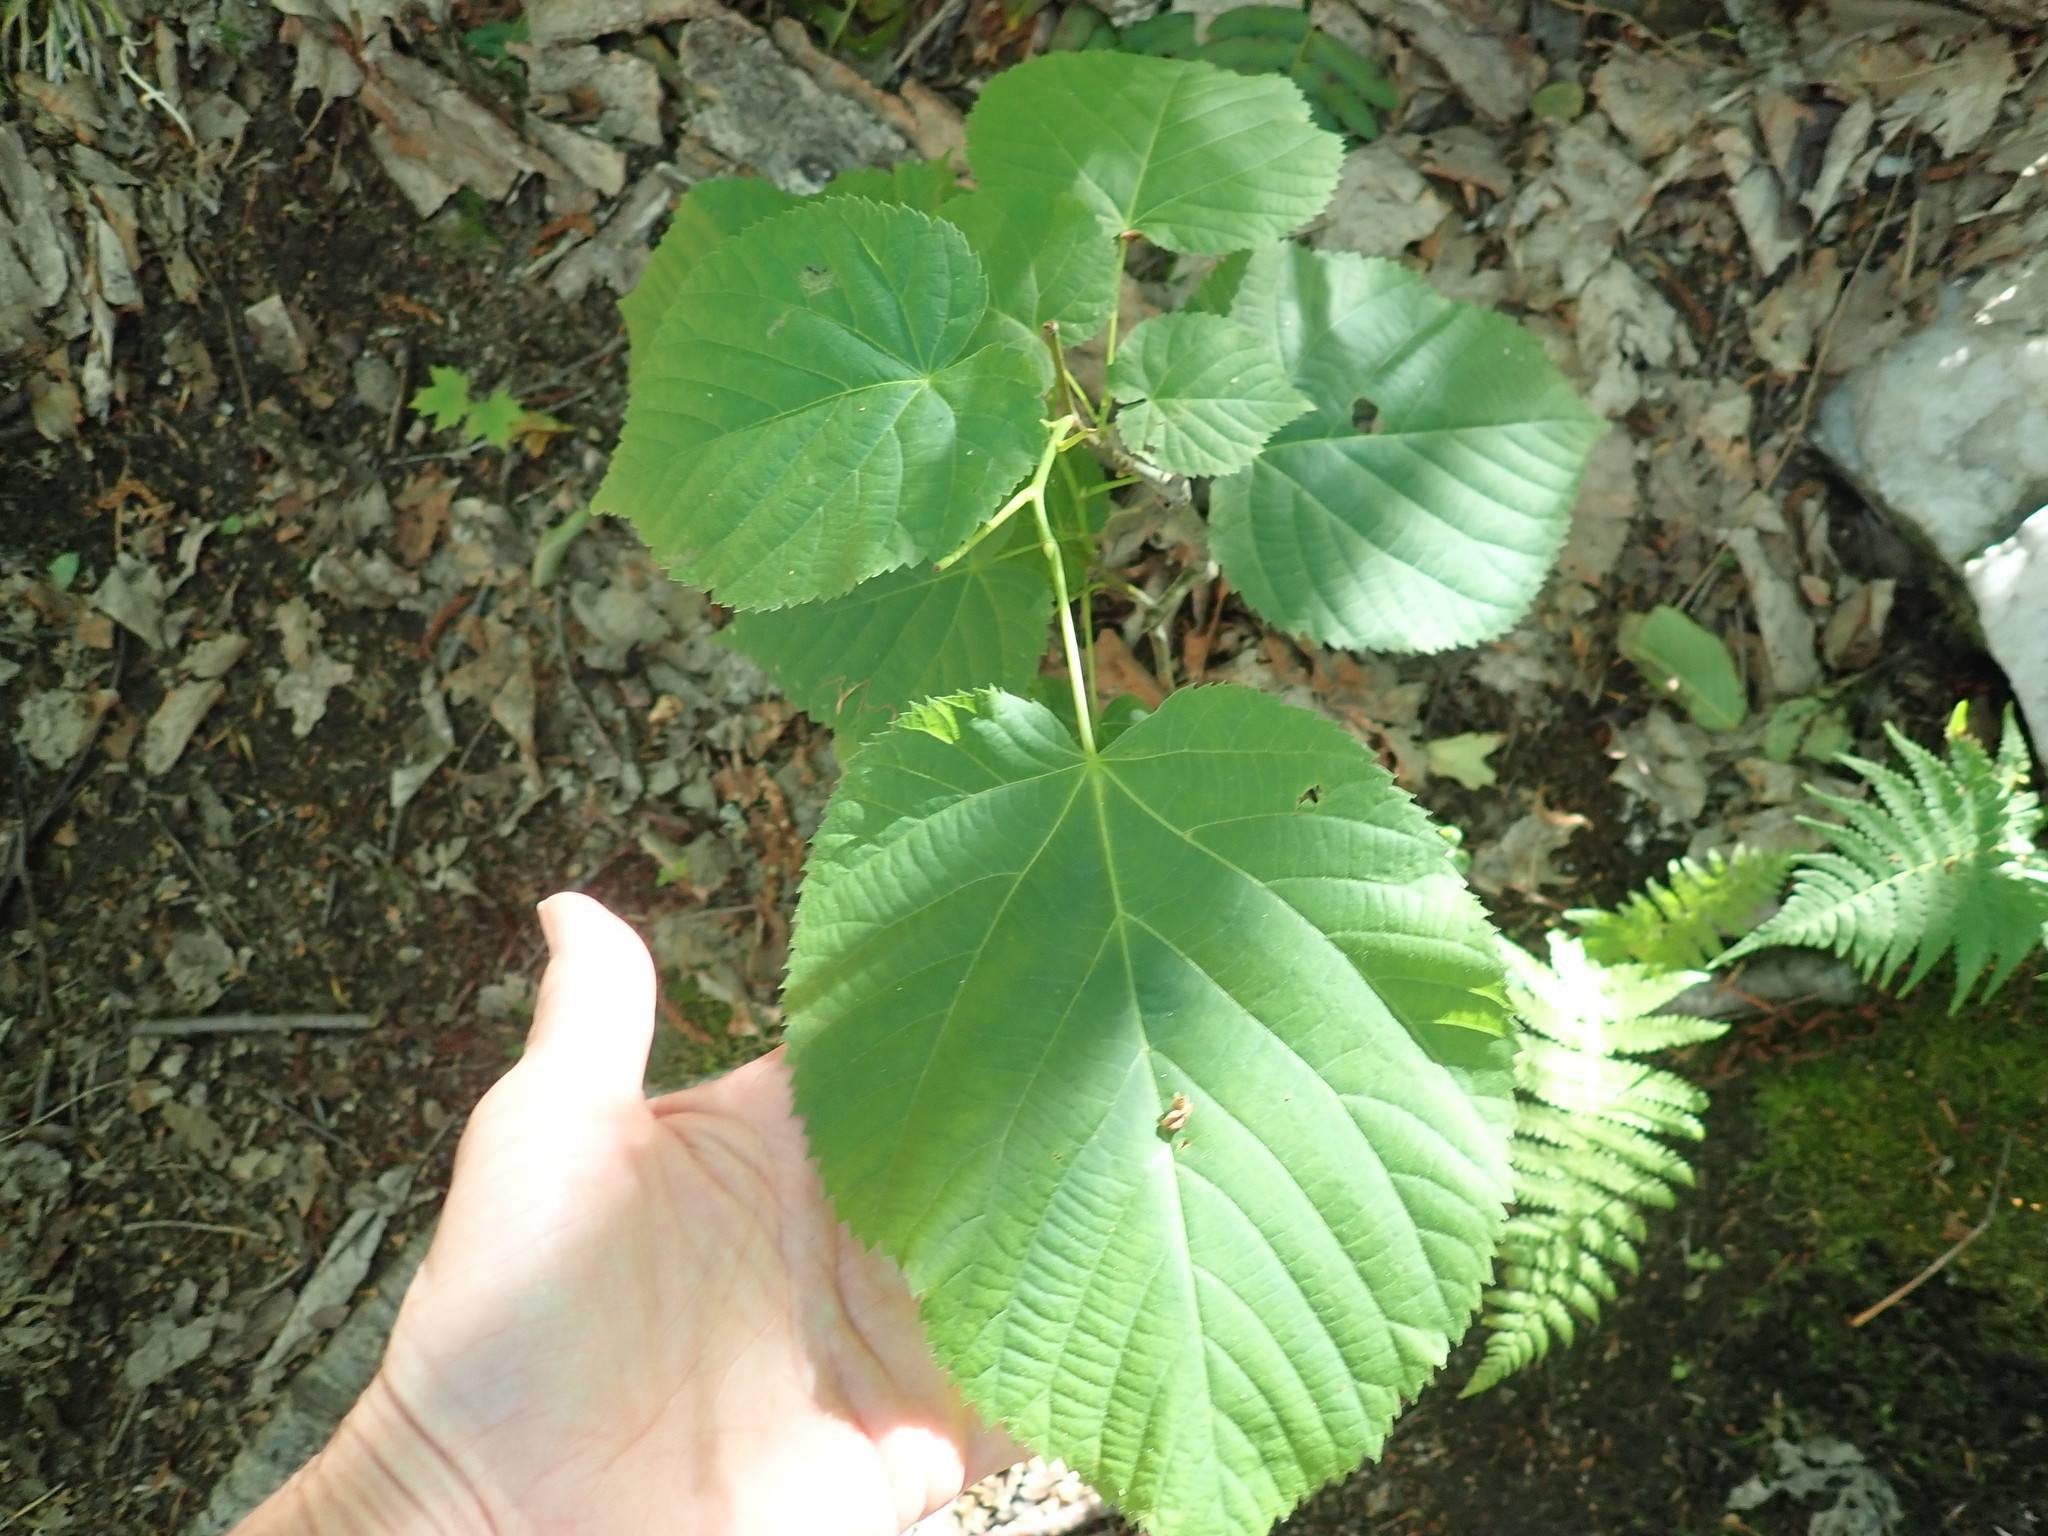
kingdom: Plantae
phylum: Tracheophyta
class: Magnoliopsida
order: Malvales
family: Malvaceae
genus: Tilia
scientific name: Tilia americana
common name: Basswood
